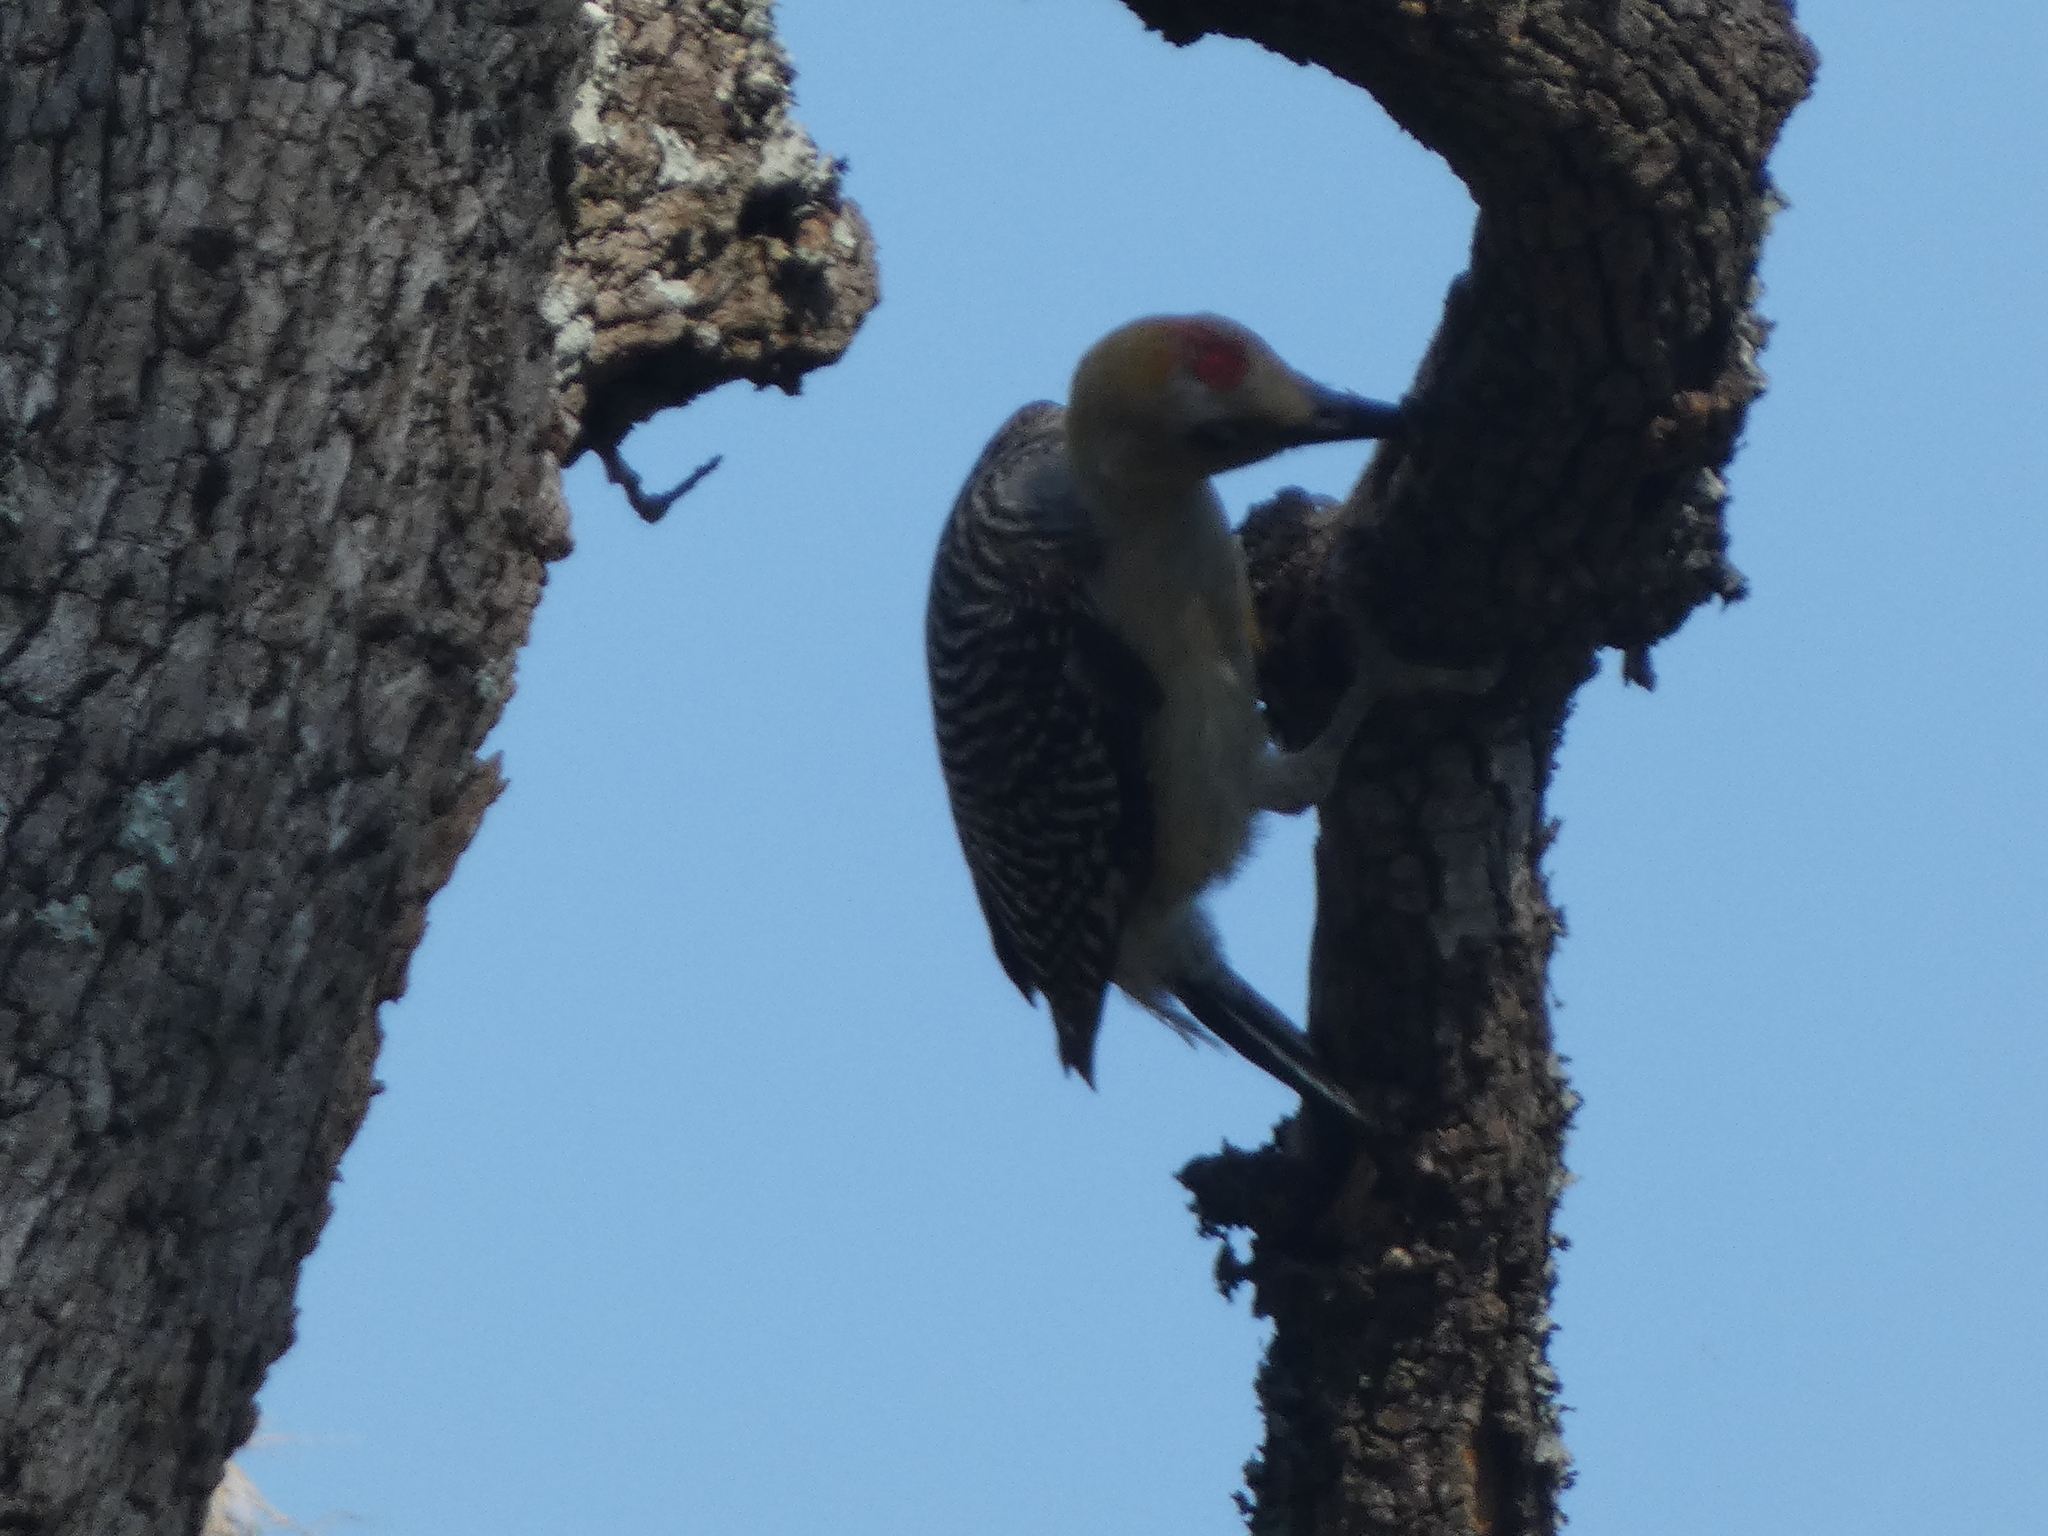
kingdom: Animalia
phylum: Chordata
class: Aves
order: Piciformes
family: Picidae
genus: Melanerpes
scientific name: Melanerpes aurifrons
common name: Golden-fronted woodpecker
